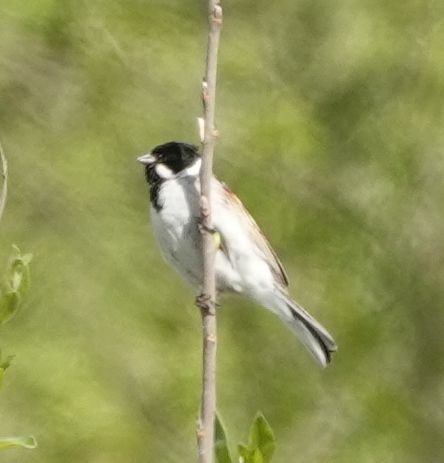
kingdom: Animalia
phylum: Chordata
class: Aves
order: Passeriformes
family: Emberizidae
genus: Emberiza
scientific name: Emberiza schoeniclus
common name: Reed bunting
